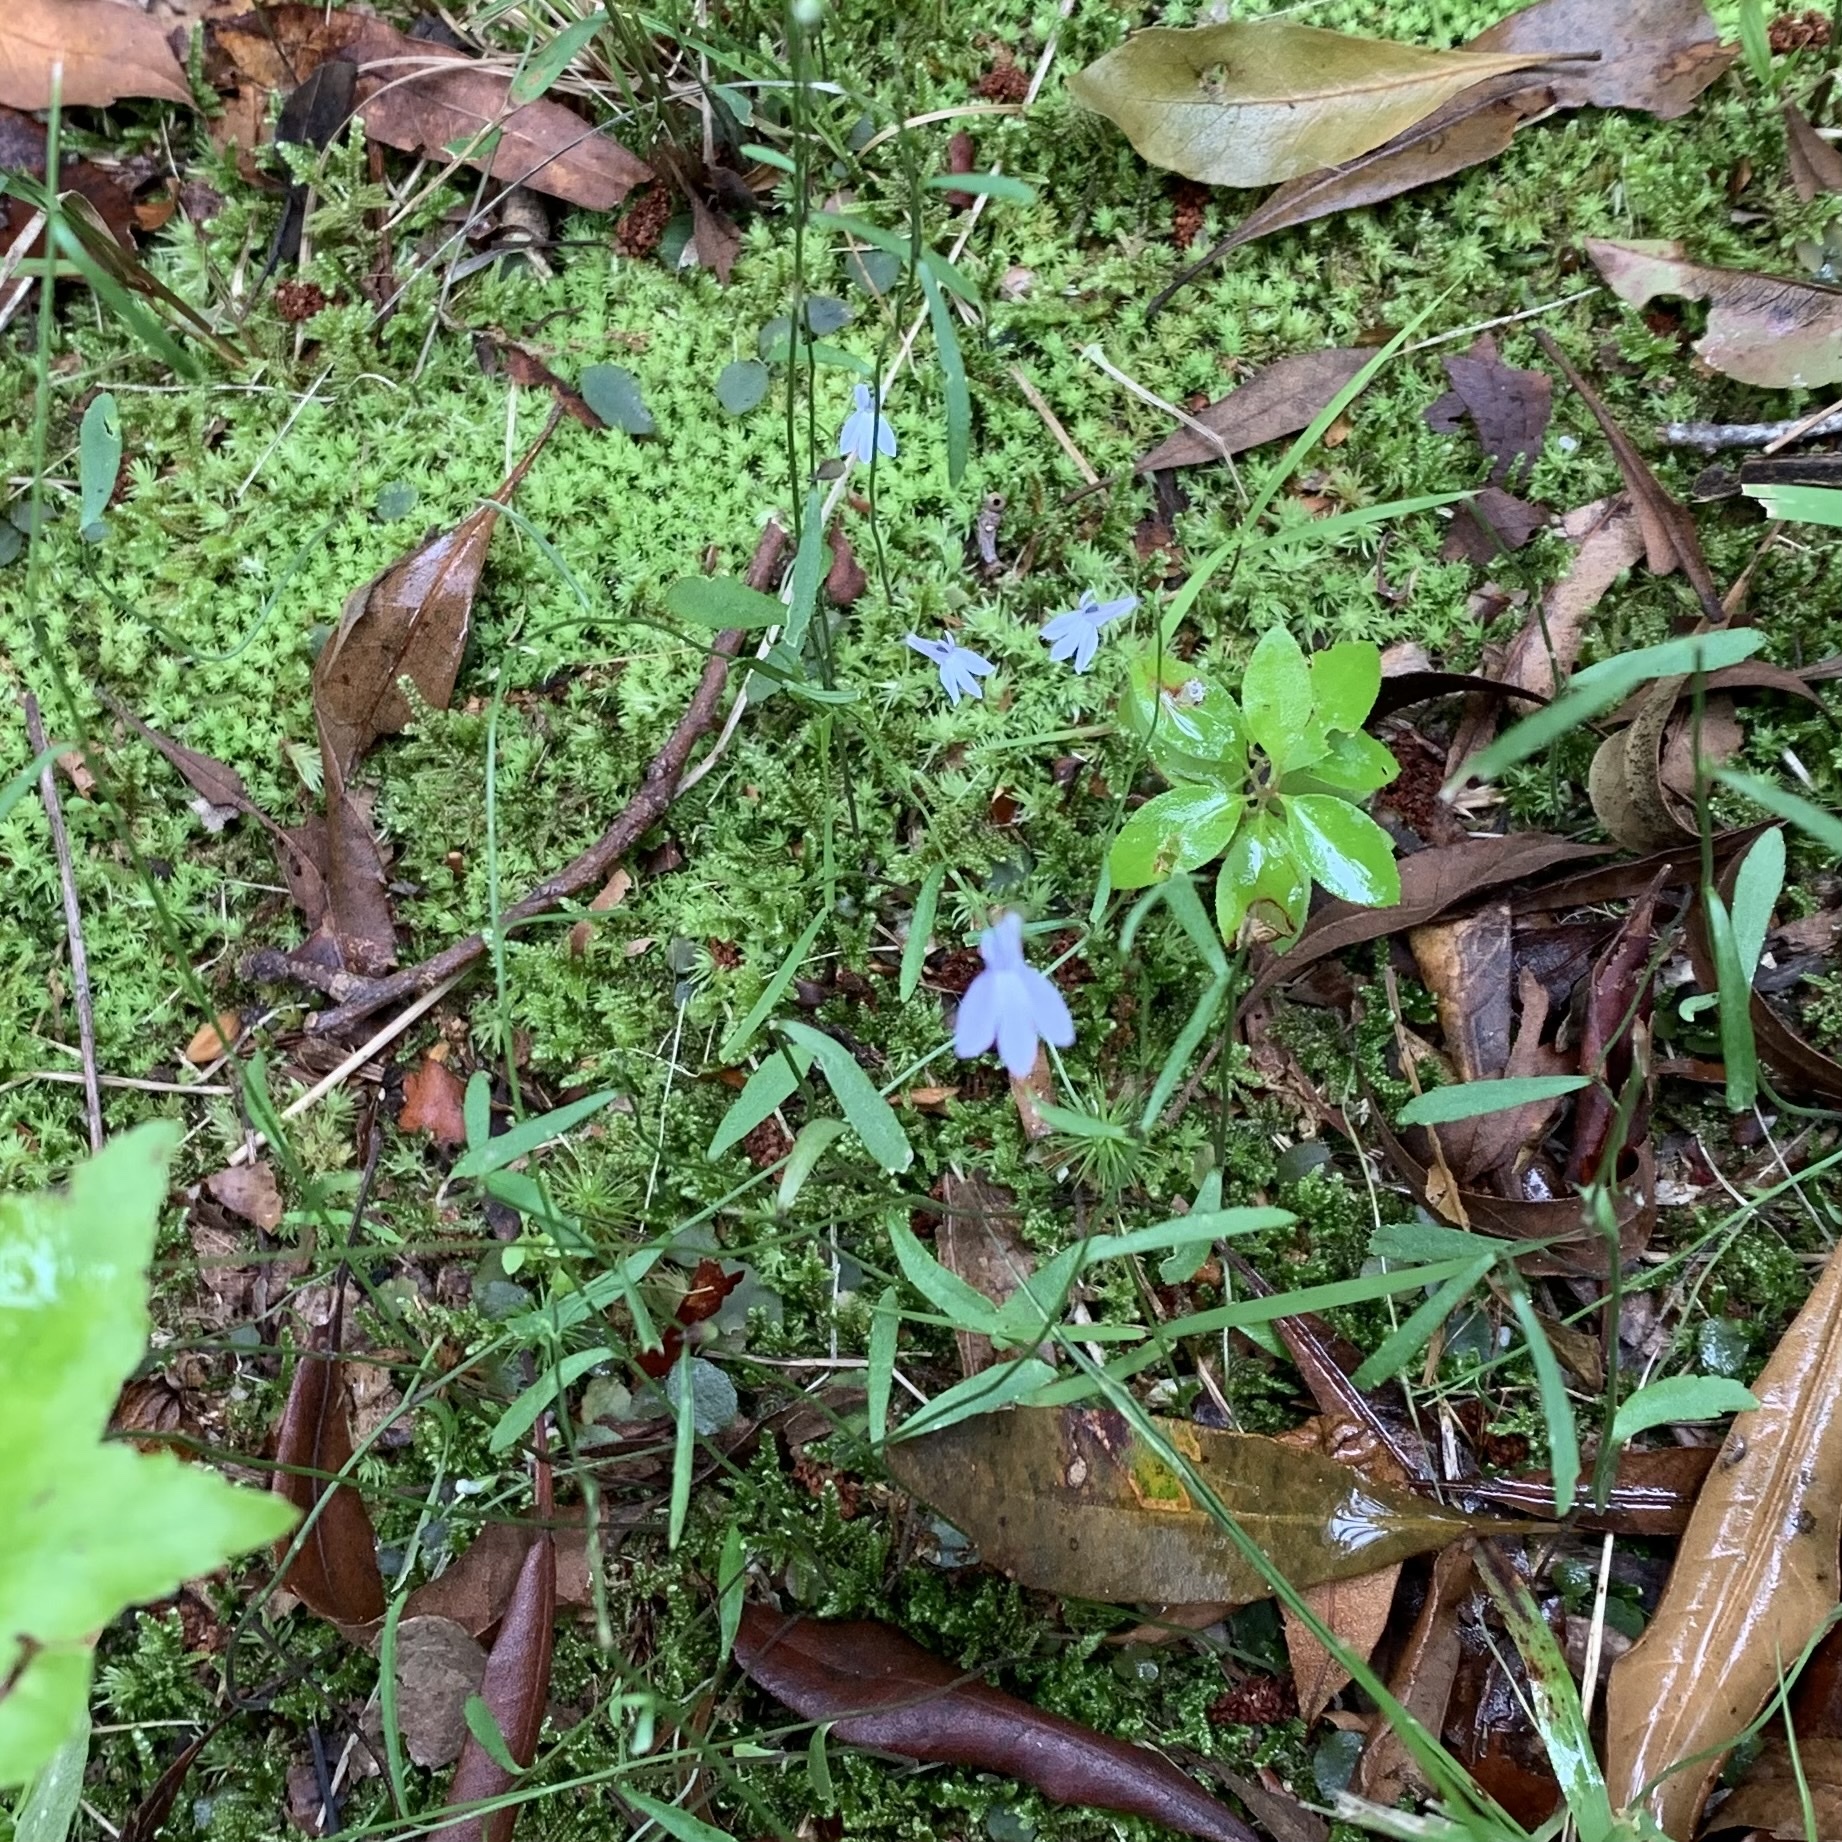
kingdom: Plantae
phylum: Tracheophyta
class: Magnoliopsida
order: Asterales
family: Campanulaceae
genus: Lobelia
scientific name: Lobelia nuttallii
